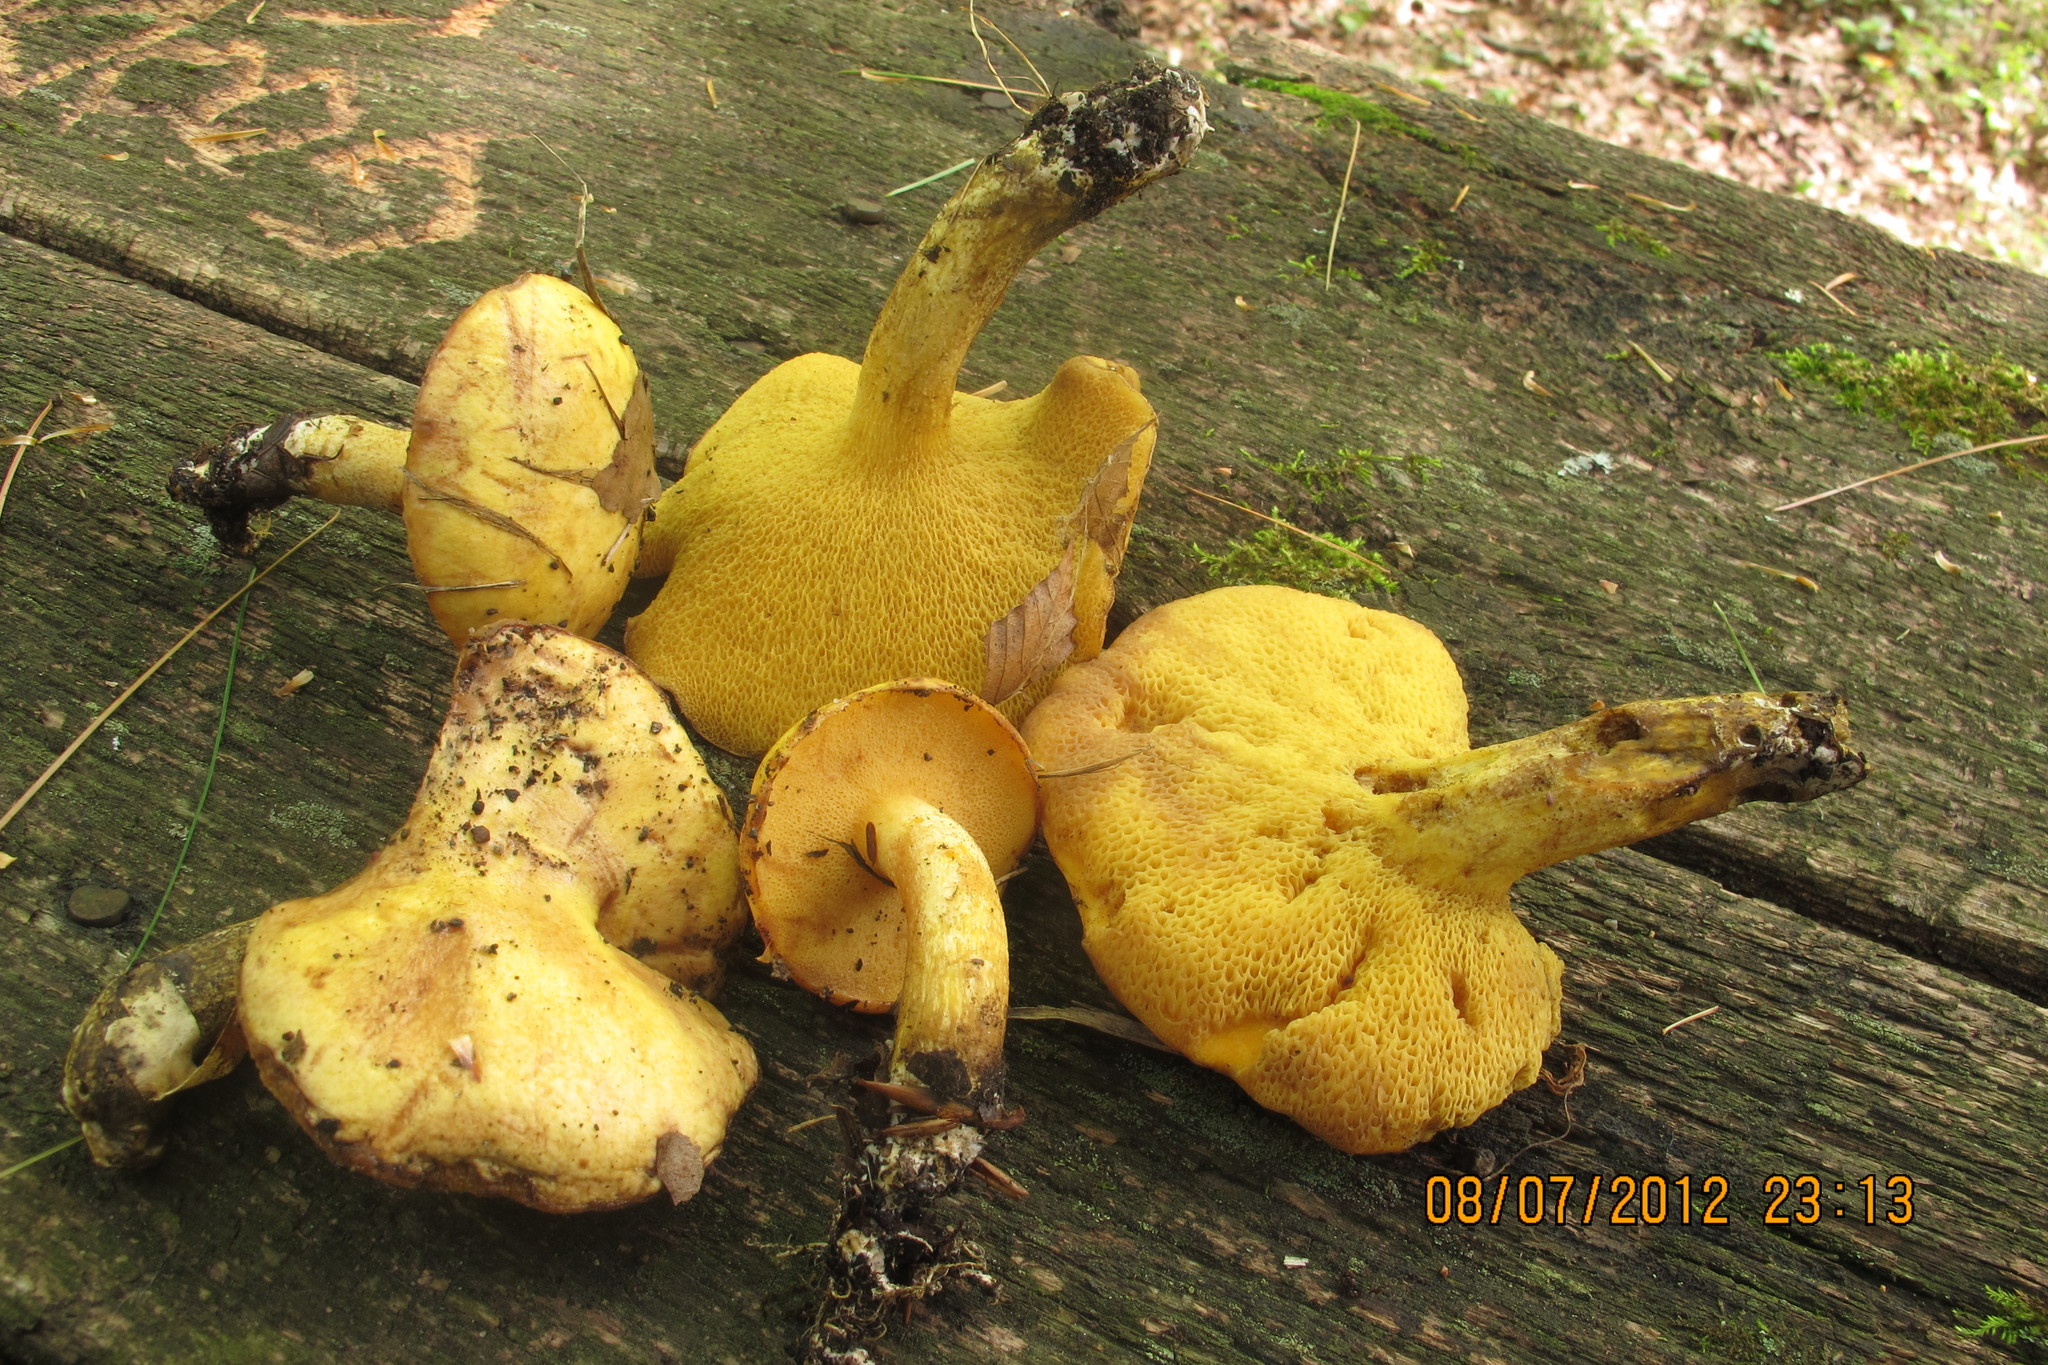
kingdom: Fungi
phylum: Basidiomycota
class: Agaricomycetes
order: Boletales
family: Suillaceae
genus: Suillus
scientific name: Suillus subaureus
